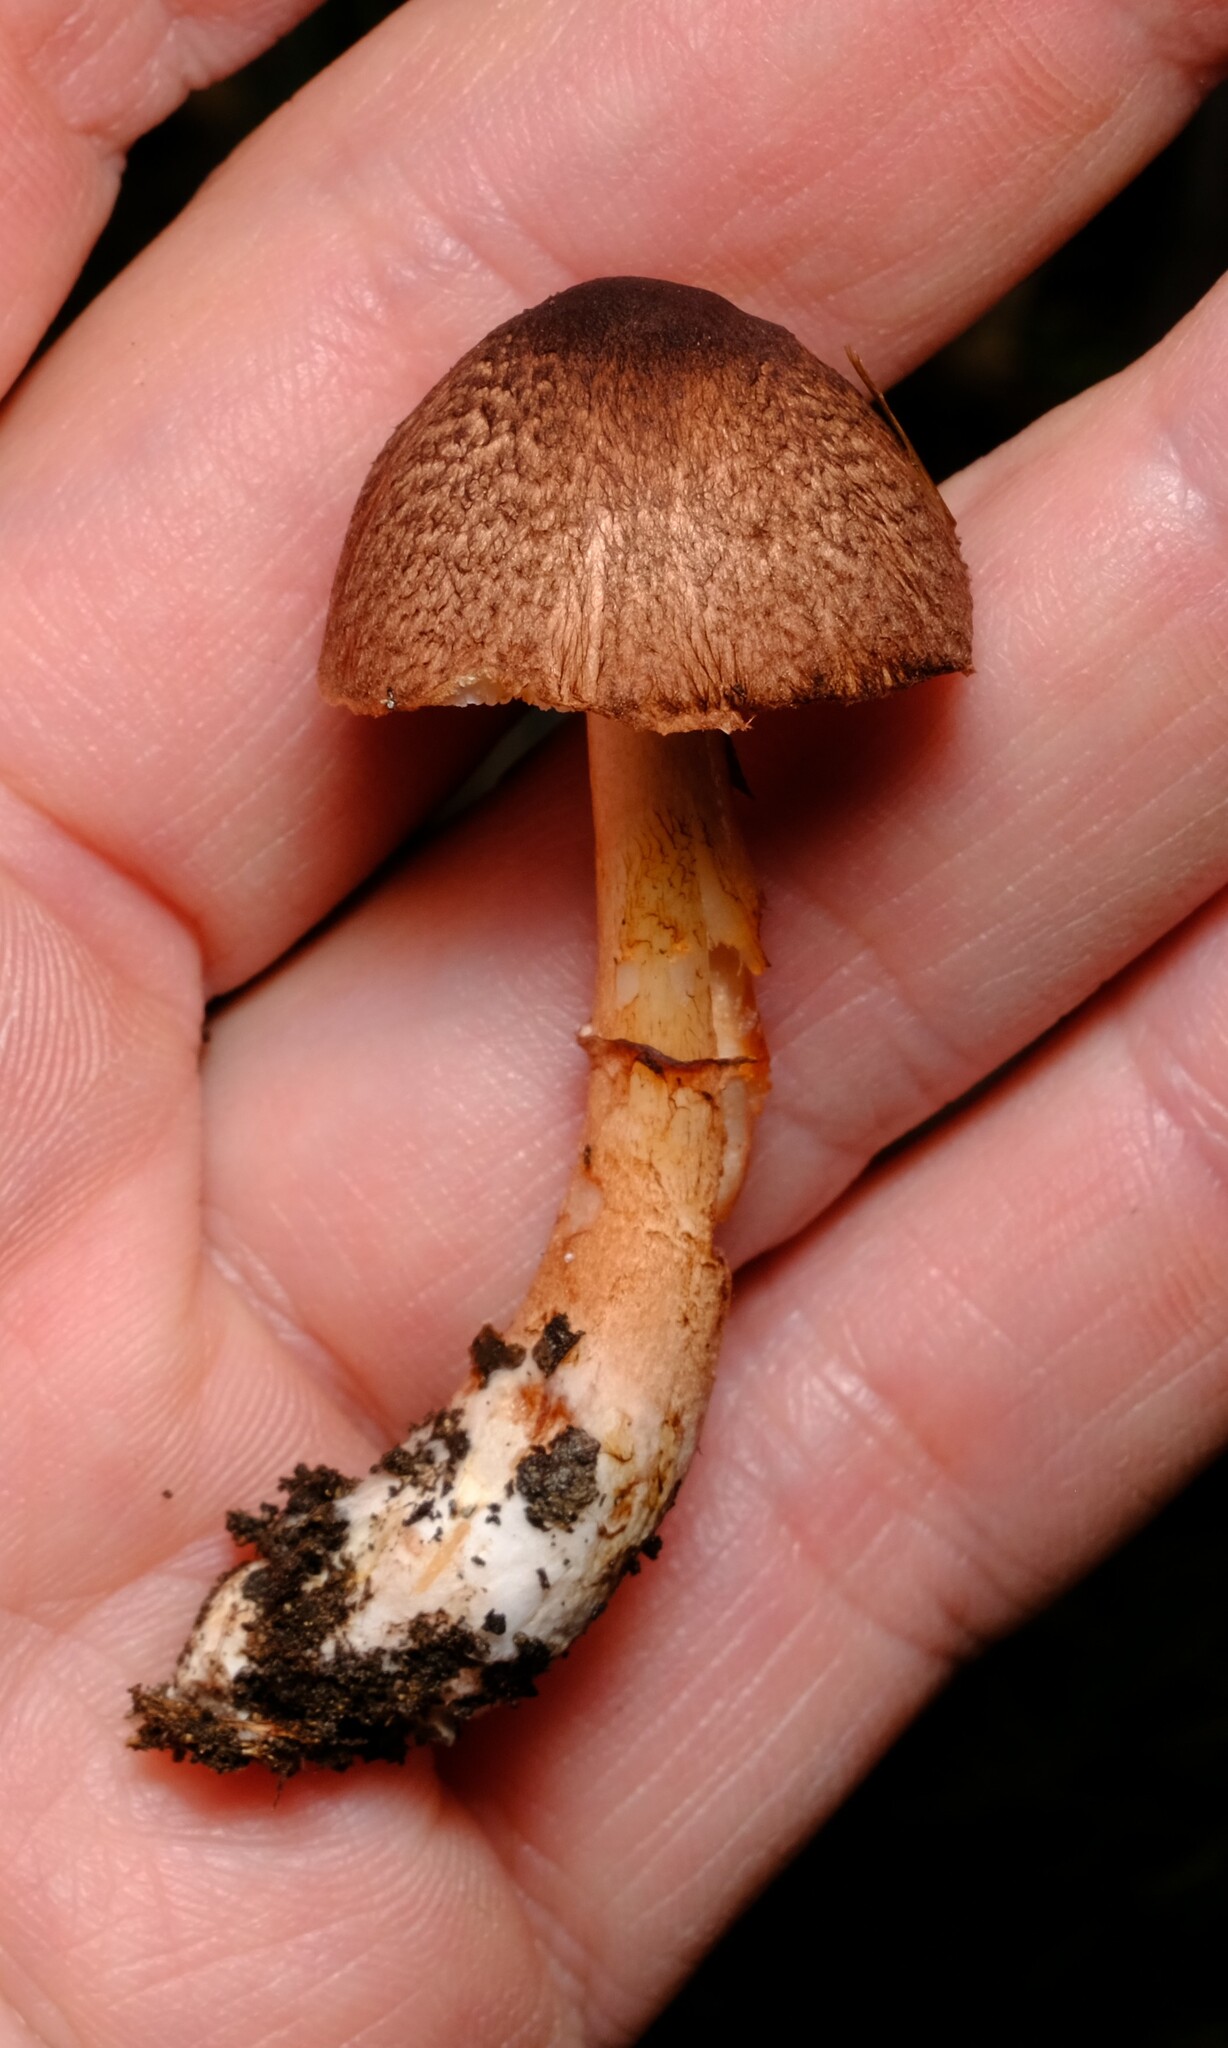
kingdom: Fungi
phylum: Basidiomycota
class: Agaricomycetes
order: Agaricales
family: Agaricaceae
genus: Lepiota
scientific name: Lepiota haemorrhagica
